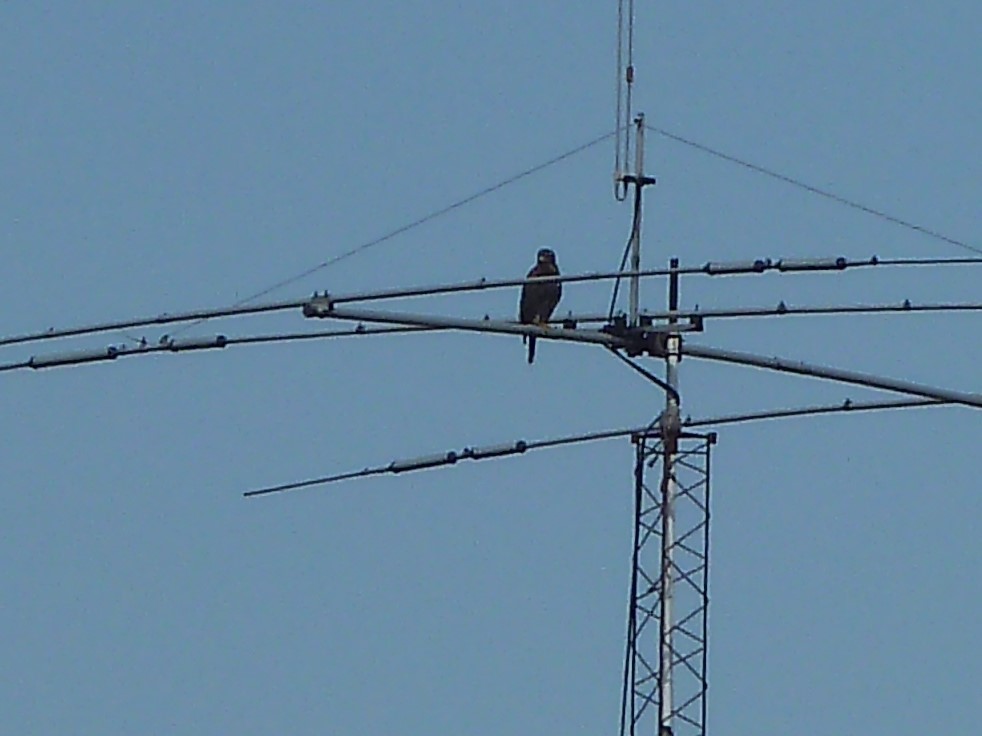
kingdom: Animalia
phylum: Chordata
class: Aves
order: Accipitriformes
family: Accipitridae
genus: Parabuteo
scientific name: Parabuteo unicinctus
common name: Harris's hawk
